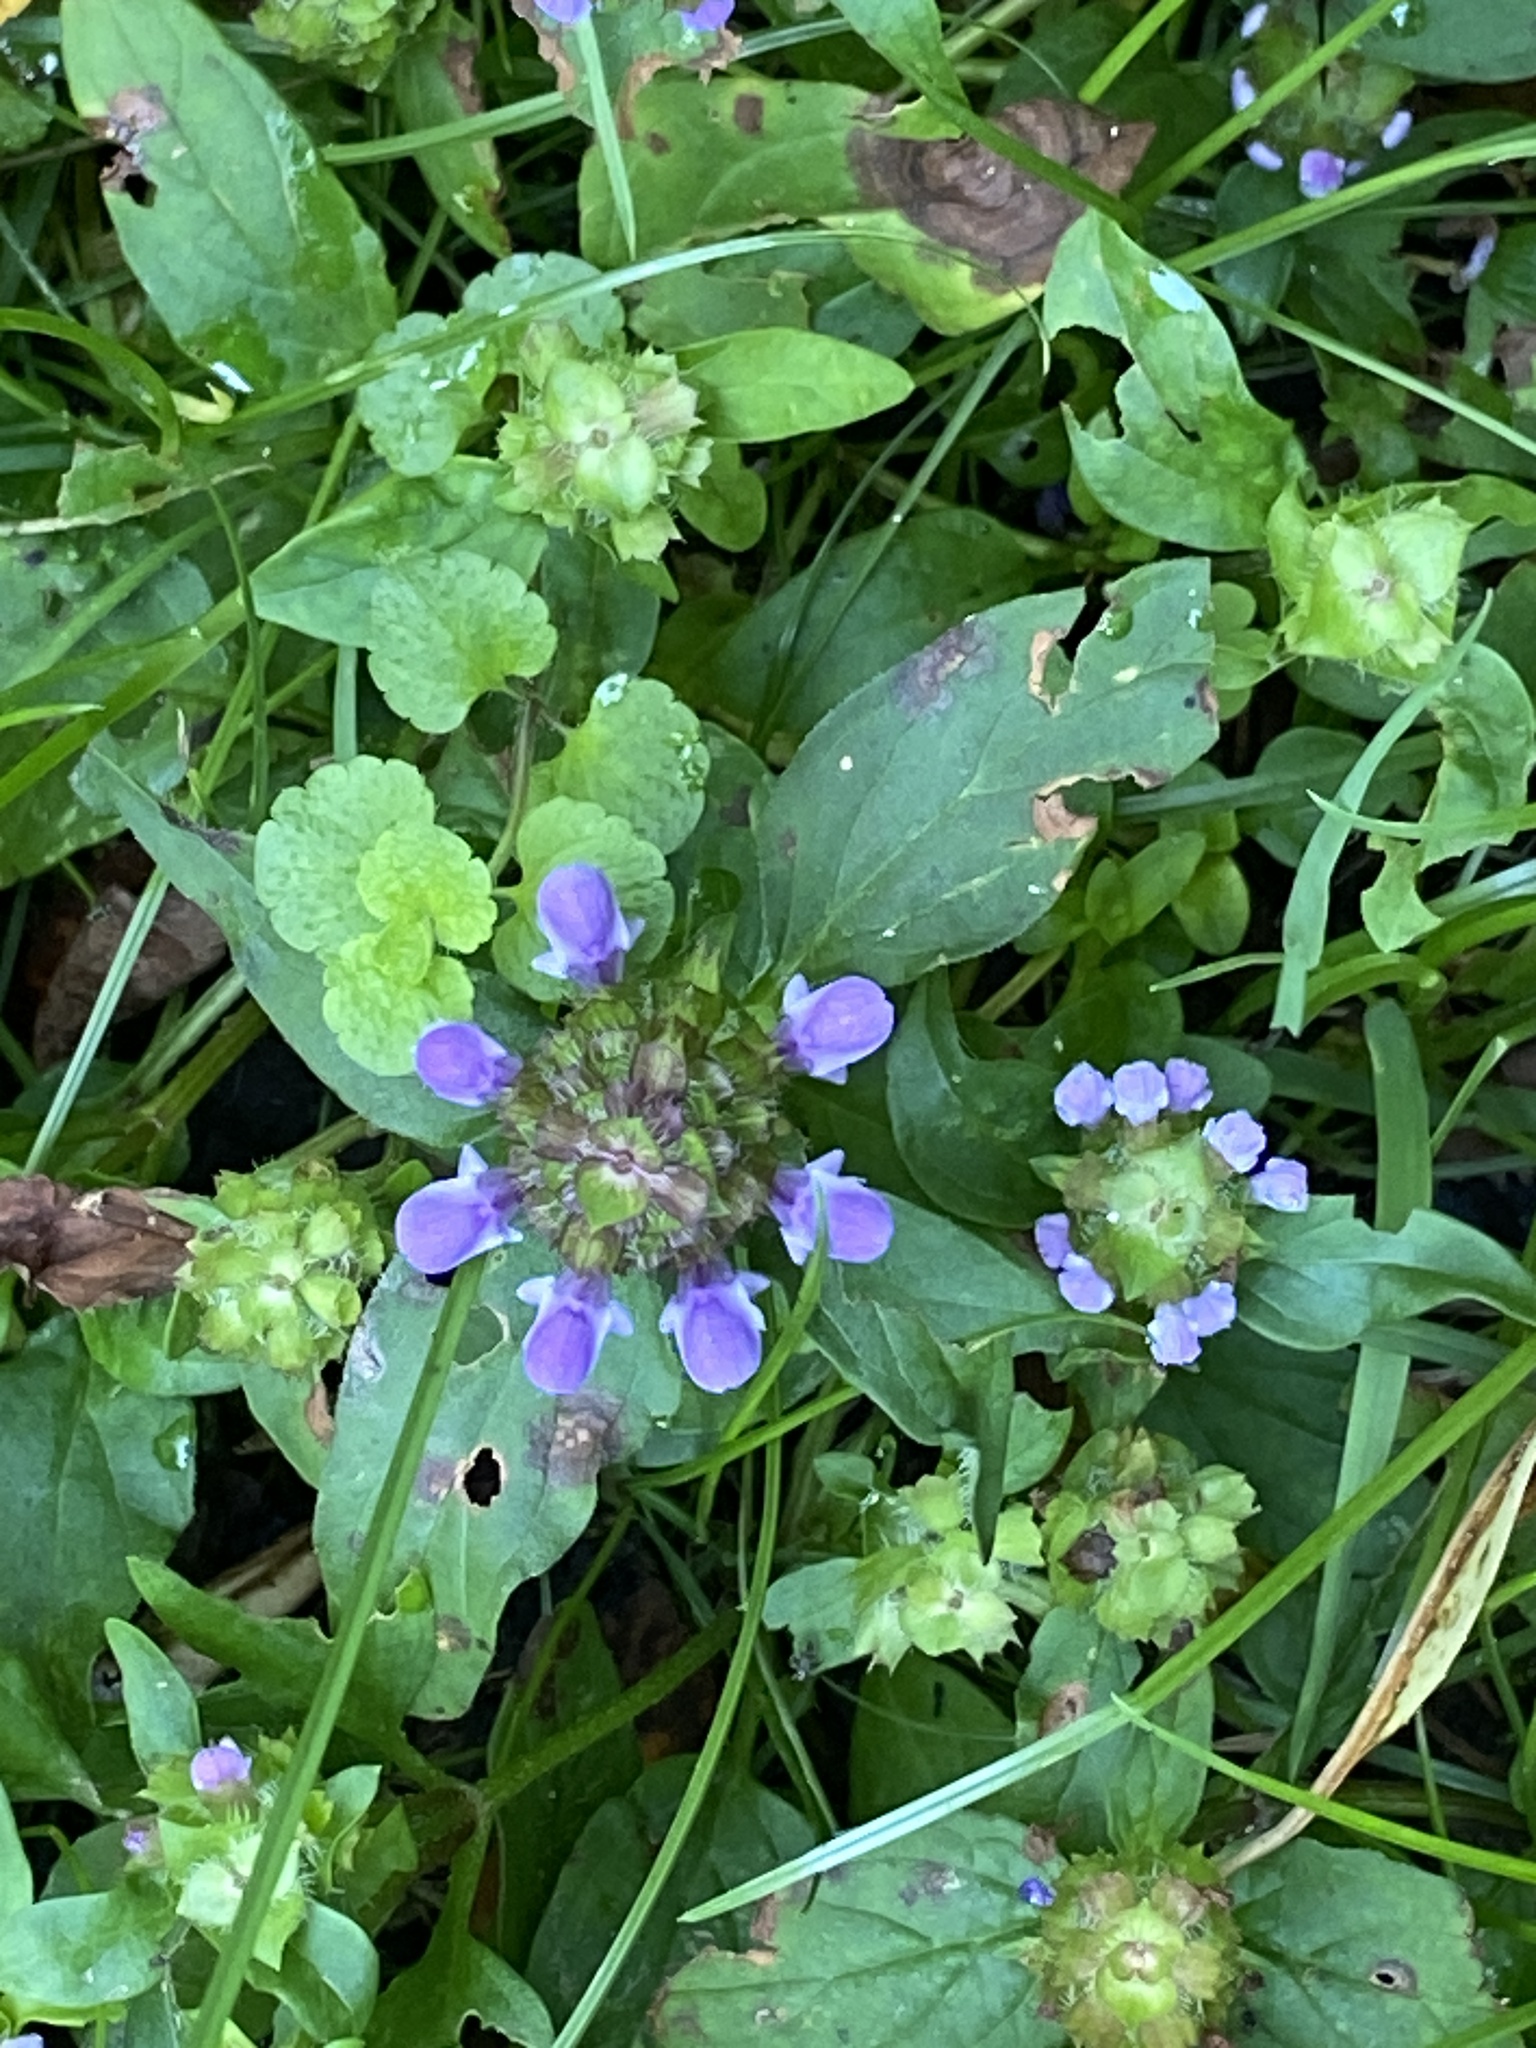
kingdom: Plantae
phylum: Tracheophyta
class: Magnoliopsida
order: Lamiales
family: Lamiaceae
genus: Prunella
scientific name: Prunella vulgaris
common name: Heal-all
